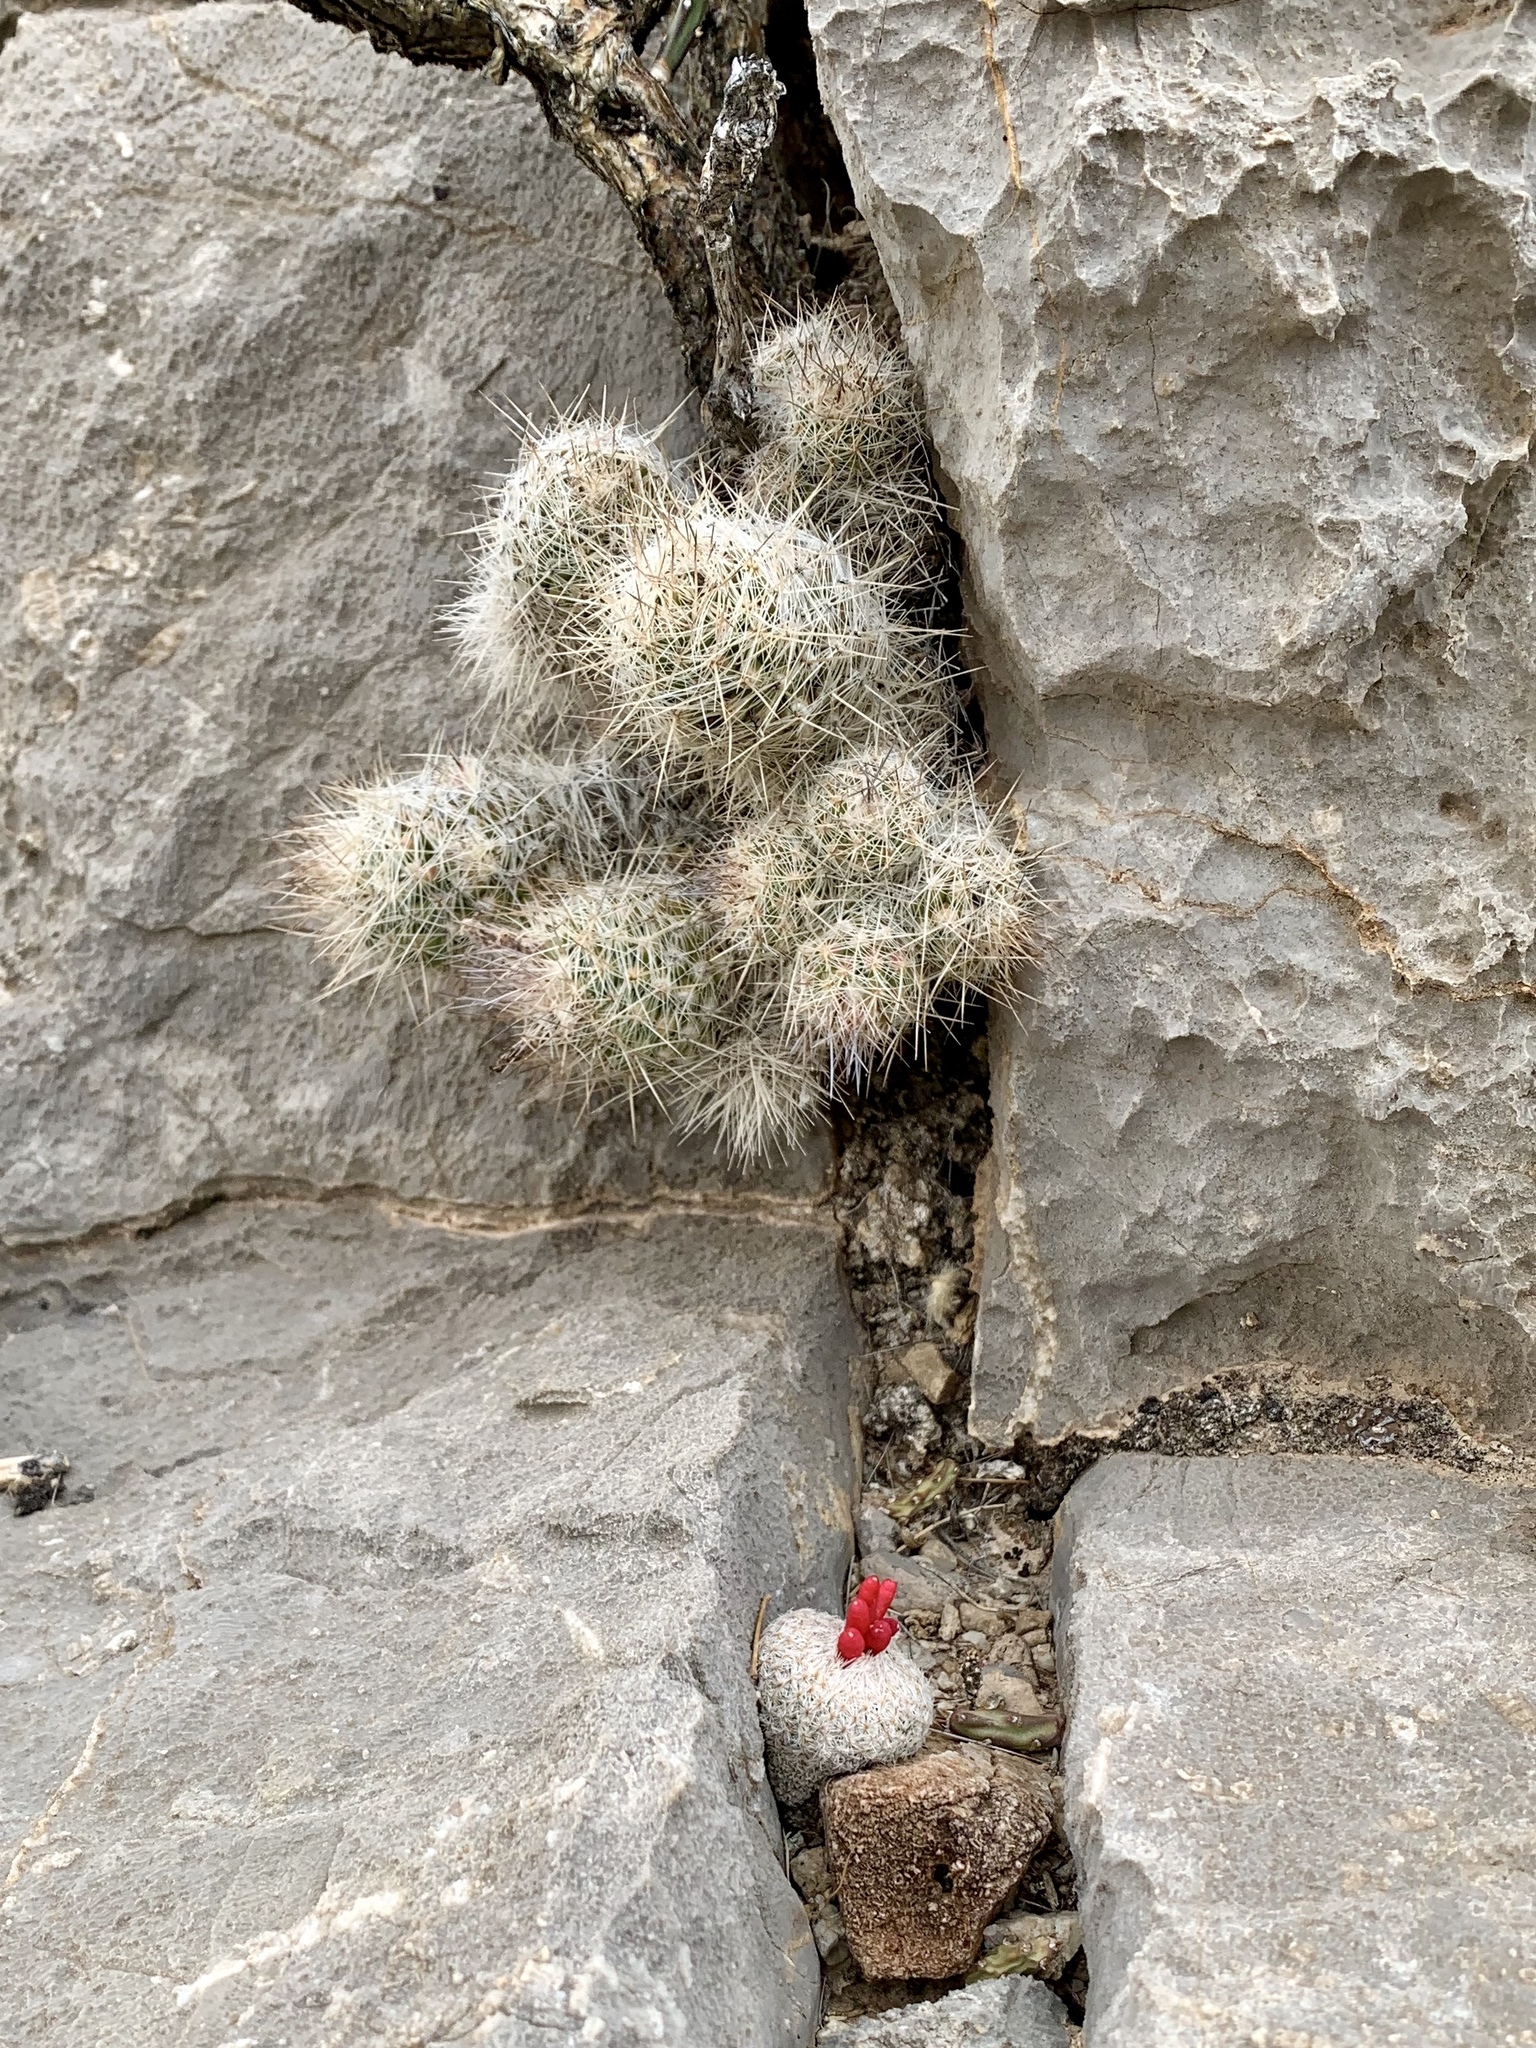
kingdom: Plantae
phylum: Tracheophyta
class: Magnoliopsida
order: Caryophyllales
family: Cactaceae
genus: Pelecyphora
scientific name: Pelecyphora tuberculosa
